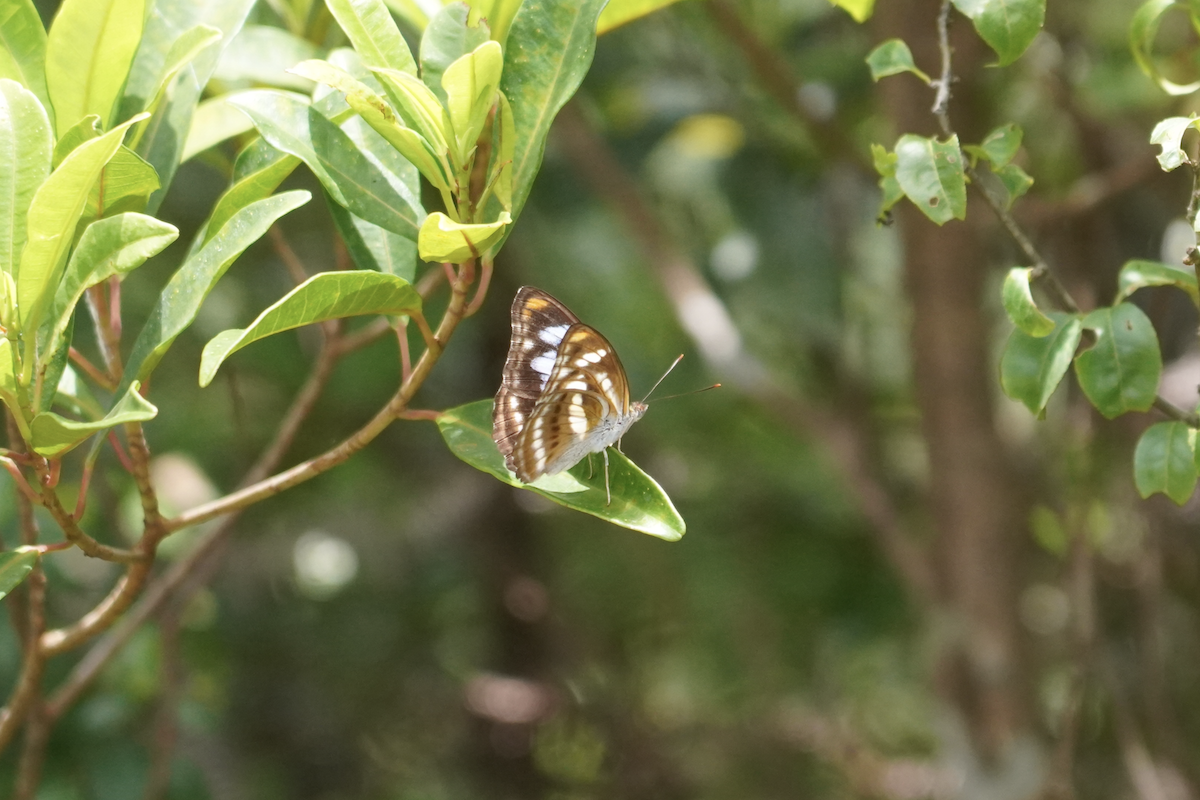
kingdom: Animalia
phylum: Arthropoda
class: Insecta
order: Lepidoptera
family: Nymphalidae
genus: Parathyma
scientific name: Parathyma nefte
